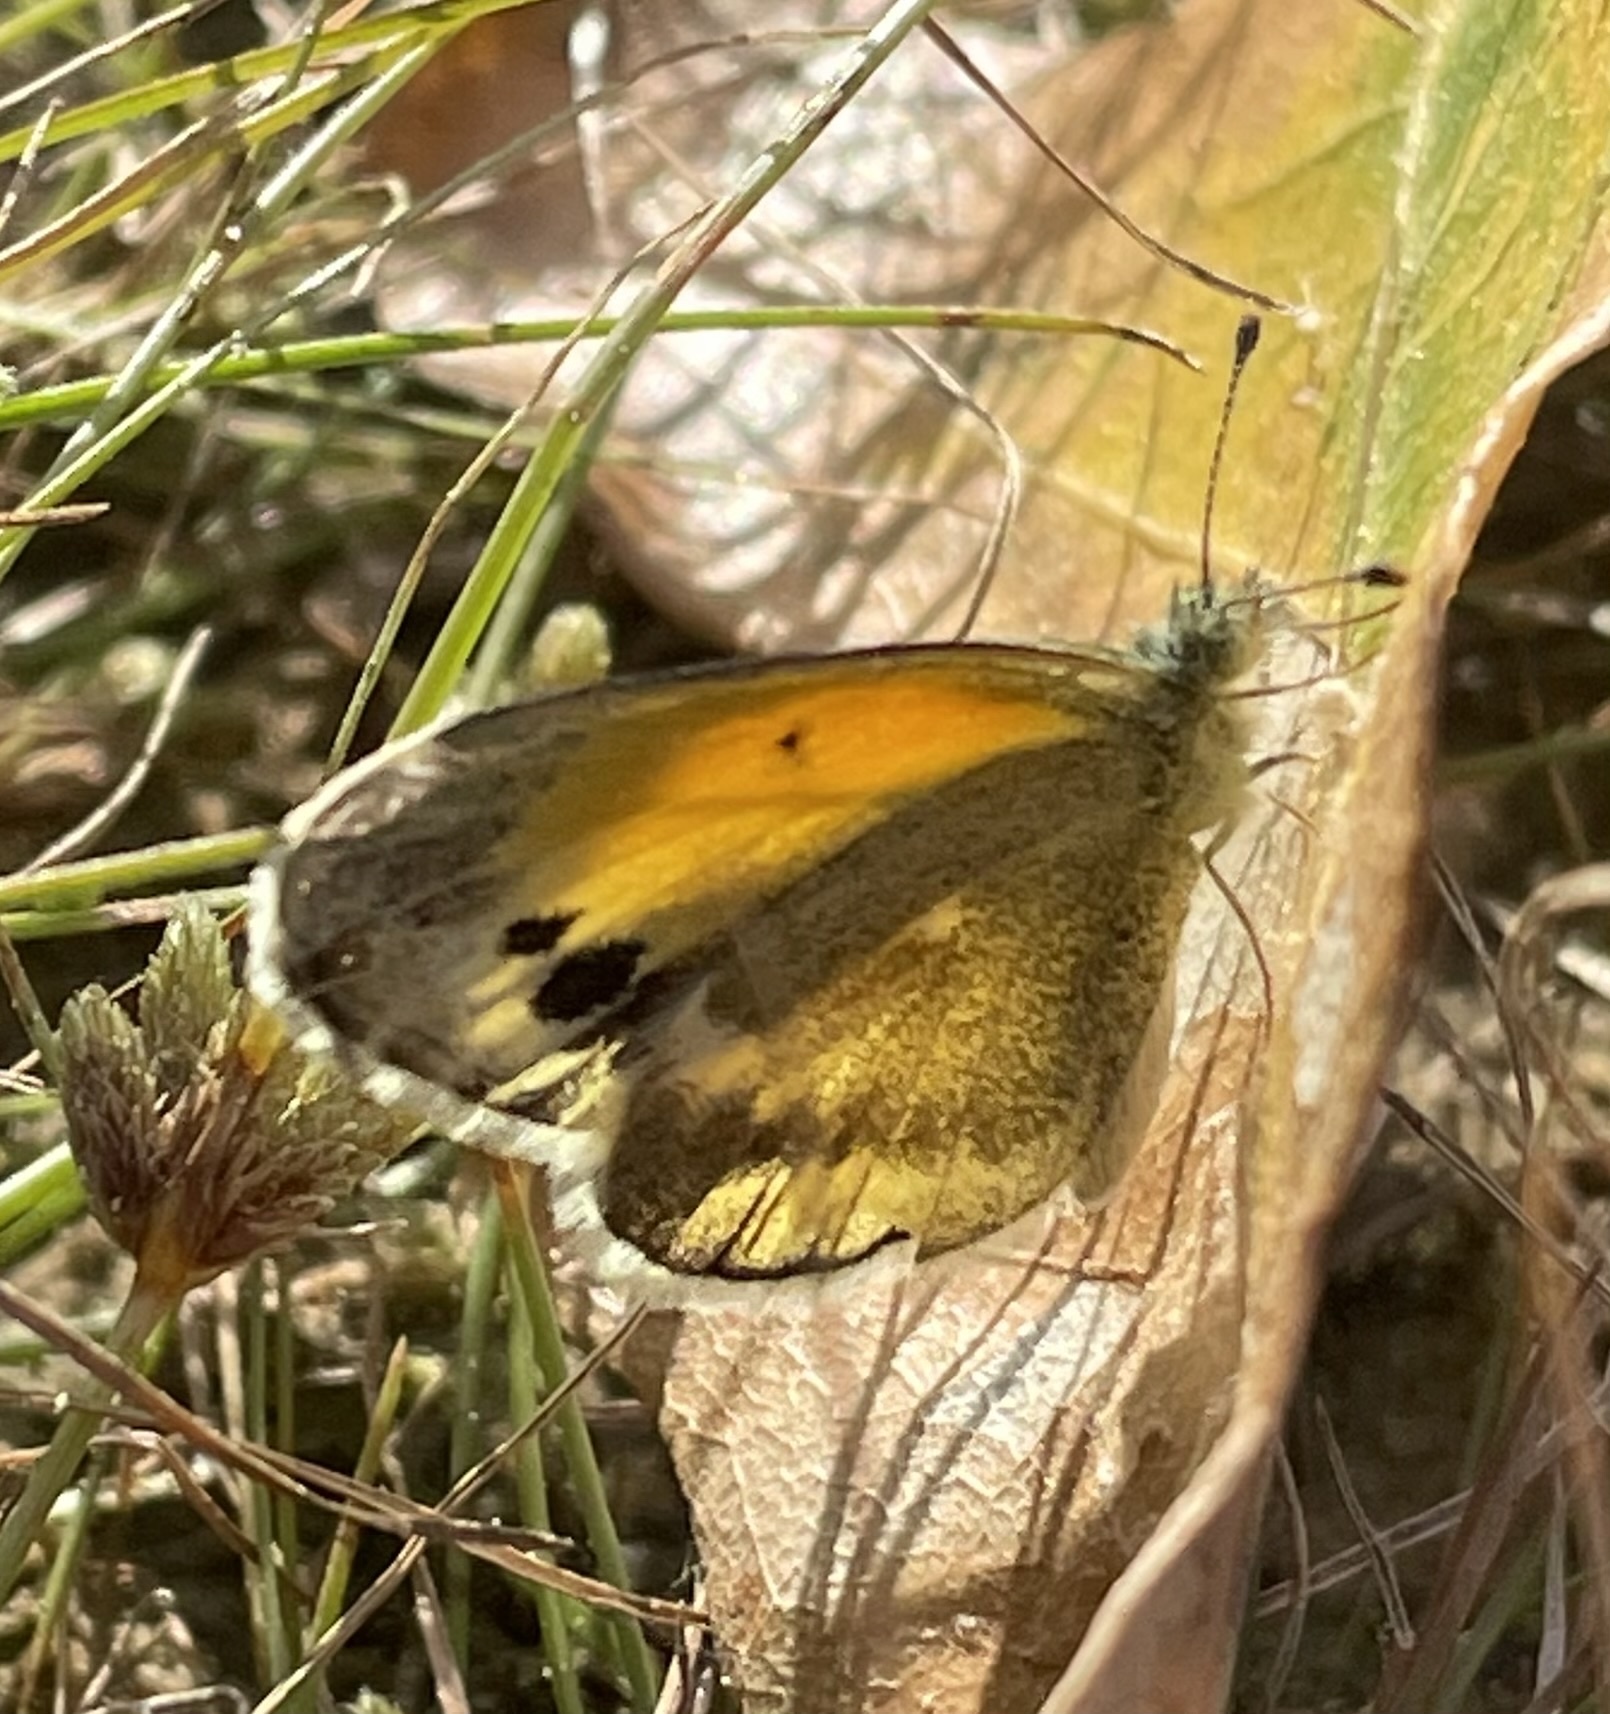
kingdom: Animalia
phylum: Arthropoda
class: Insecta
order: Lepidoptera
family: Pieridae
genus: Nathalis
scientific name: Nathalis iole
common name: Dainty sulphur
